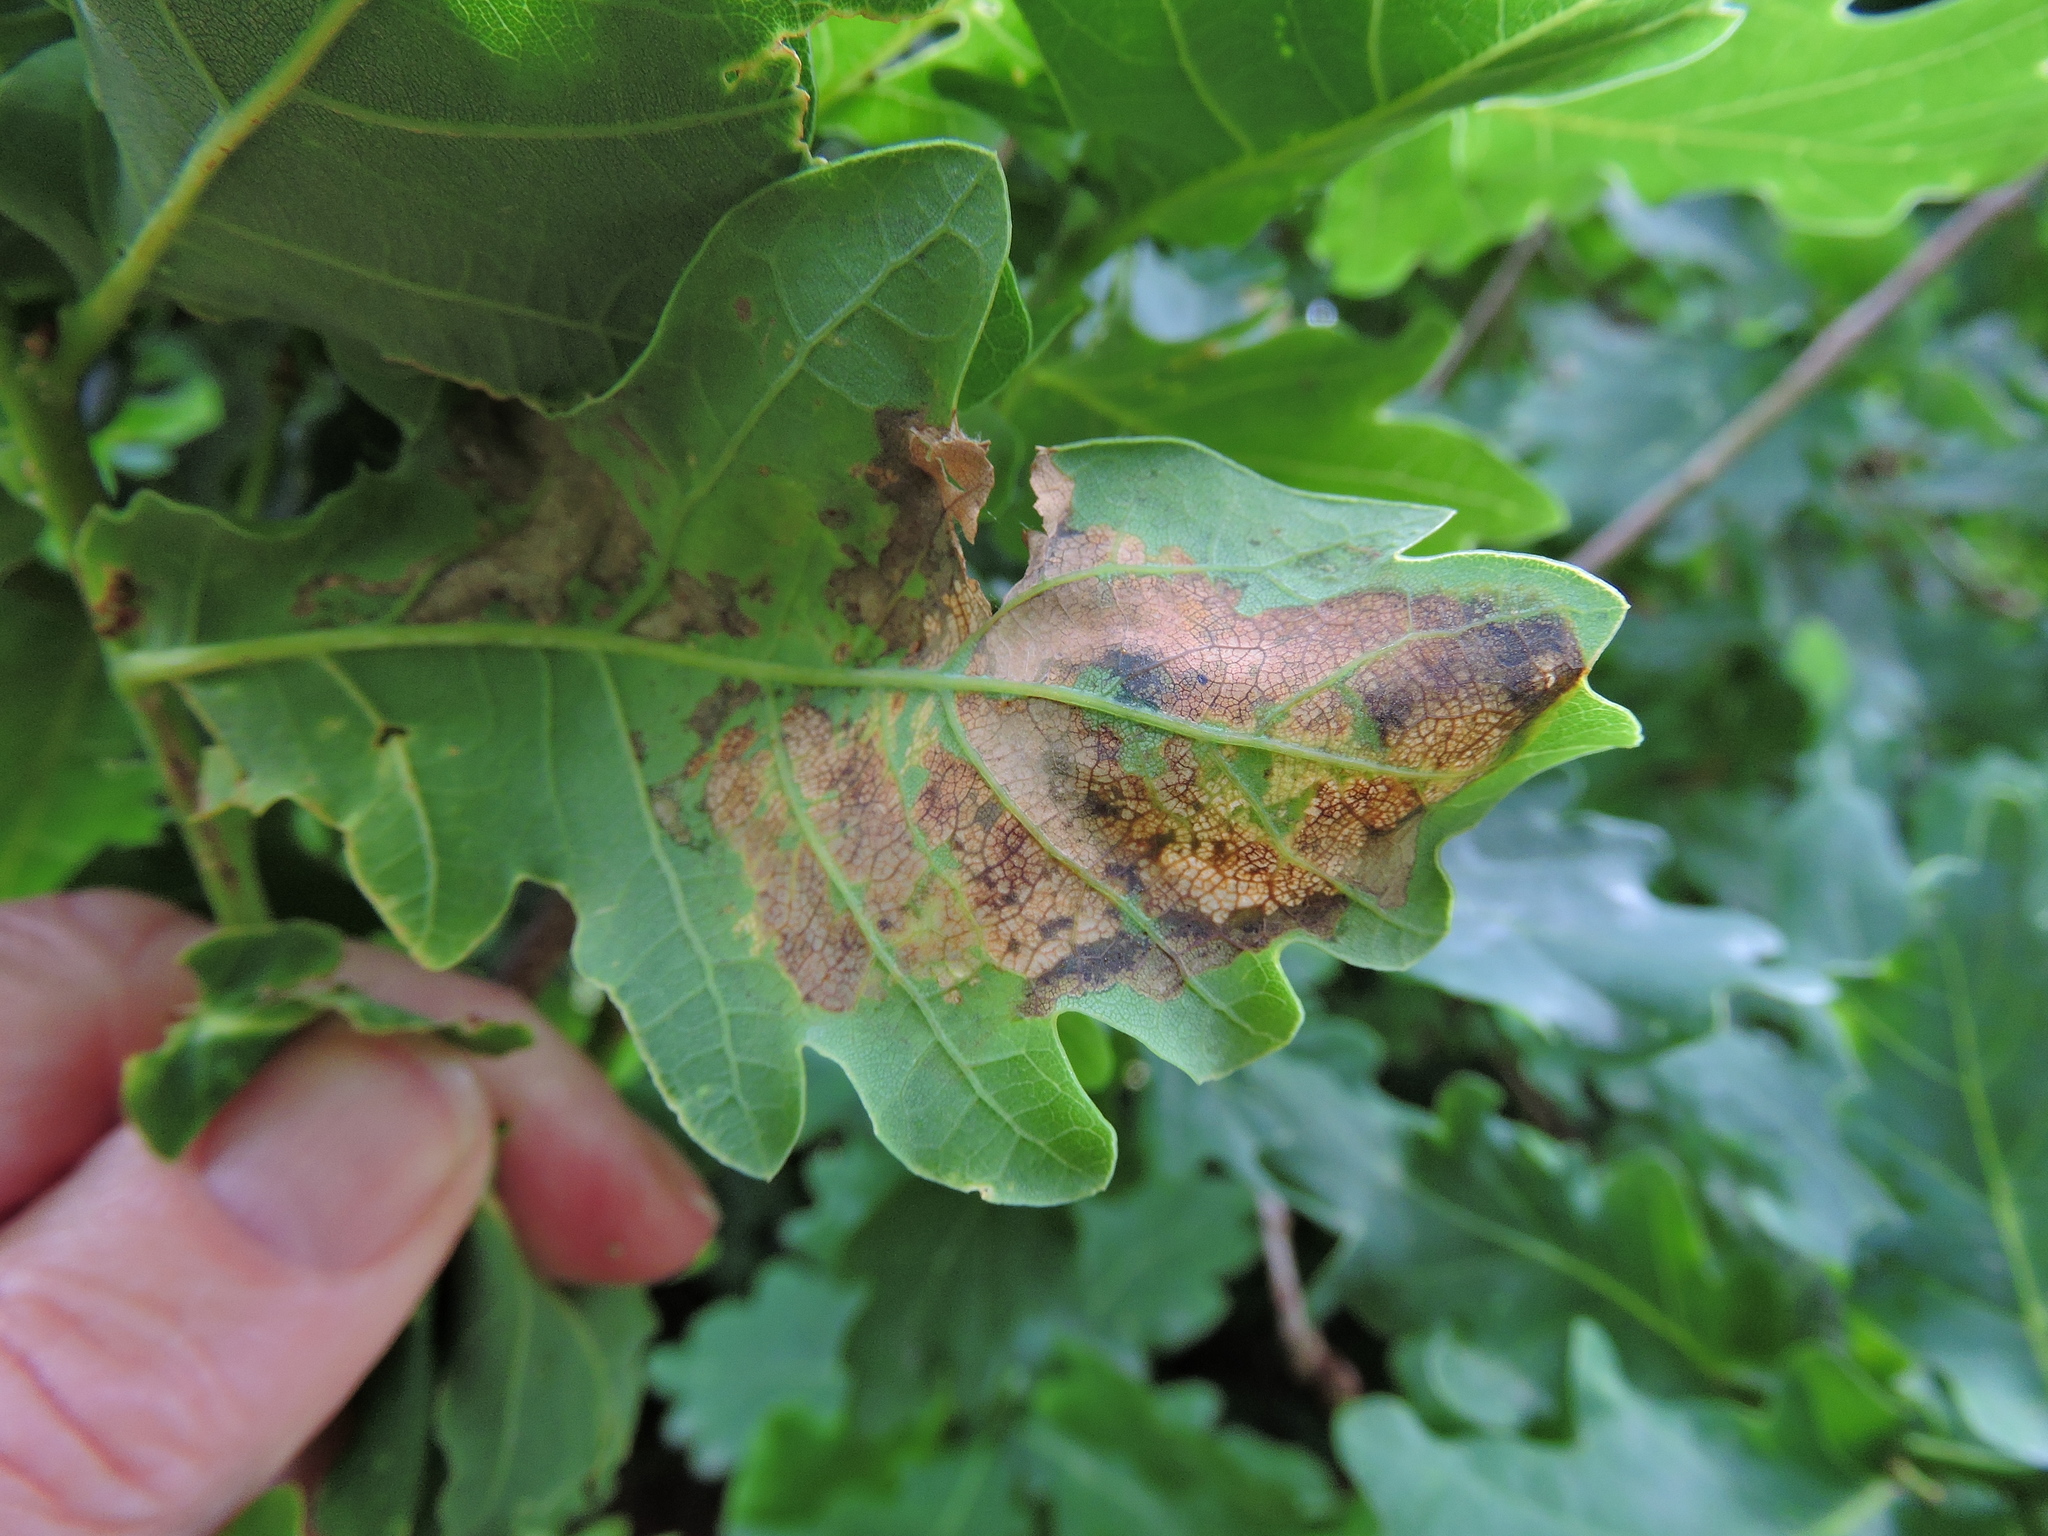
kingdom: Animalia
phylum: Arthropoda
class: Insecta
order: Lepidoptera
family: Gracillariidae
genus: Acrocercops
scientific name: Acrocercops brongniardella
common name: Brown oak slender
